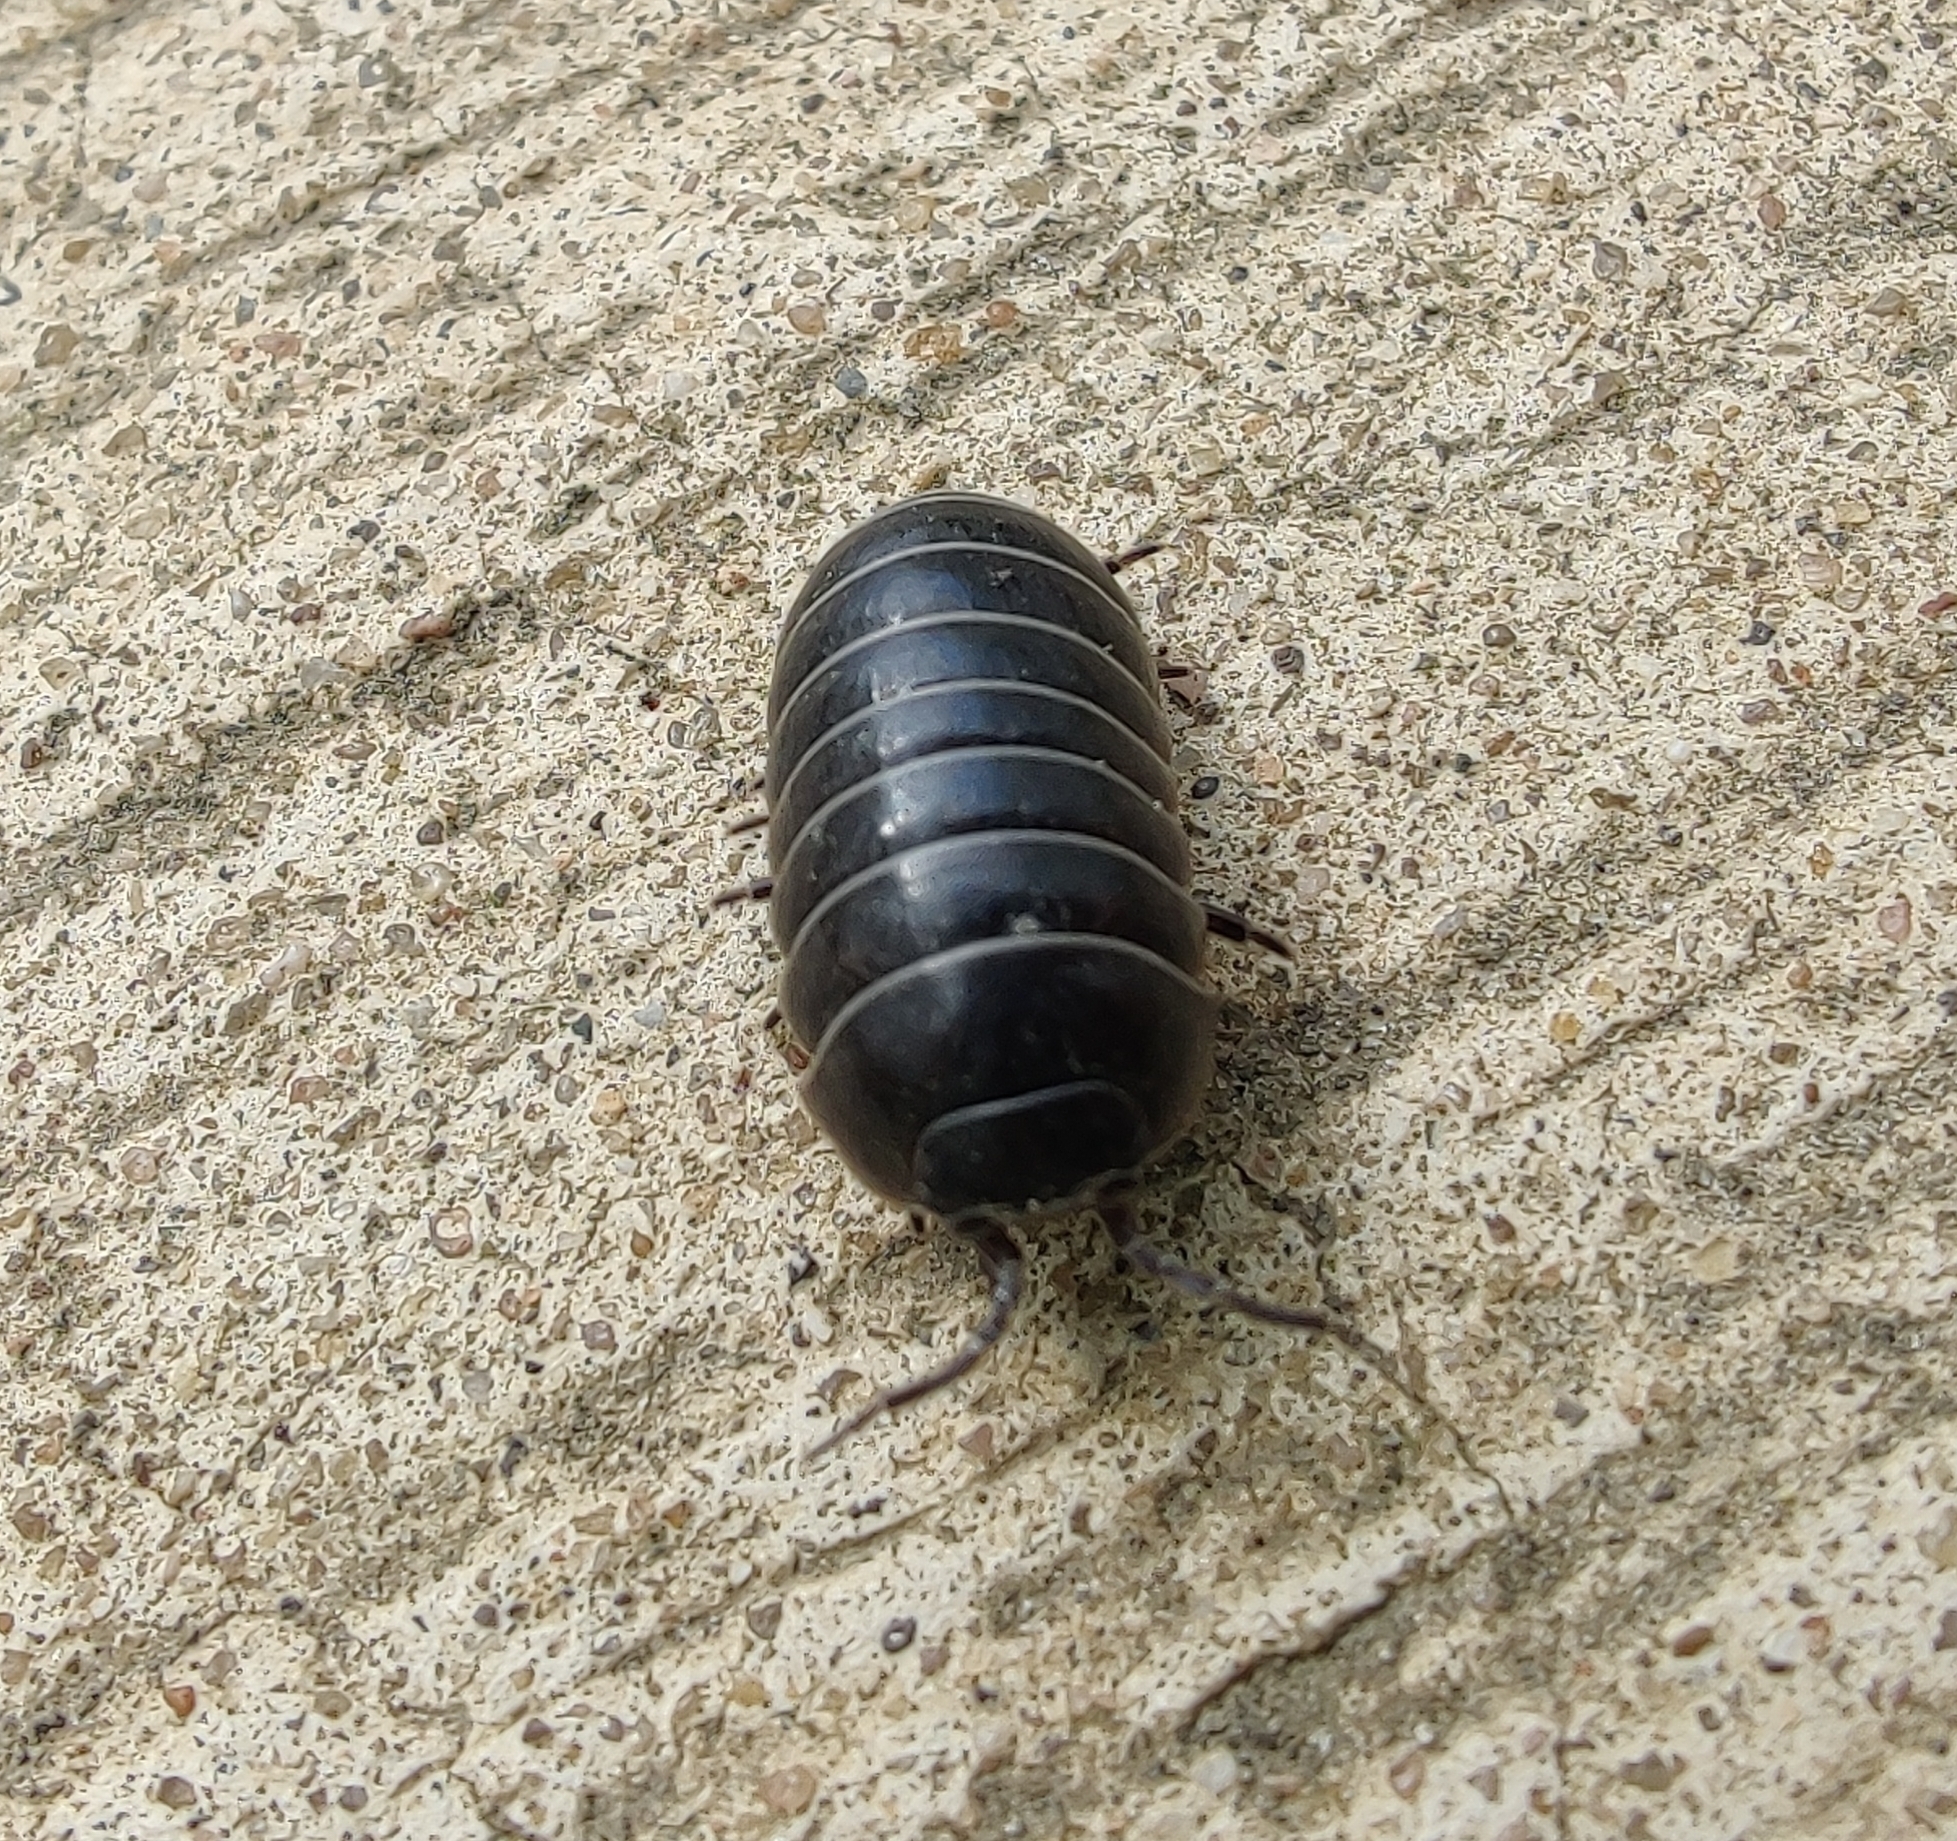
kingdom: Animalia
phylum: Arthropoda
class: Malacostraca
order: Isopoda
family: Armadillidiidae
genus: Armadillidium
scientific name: Armadillidium vulgare
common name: Common pill woodlouse
